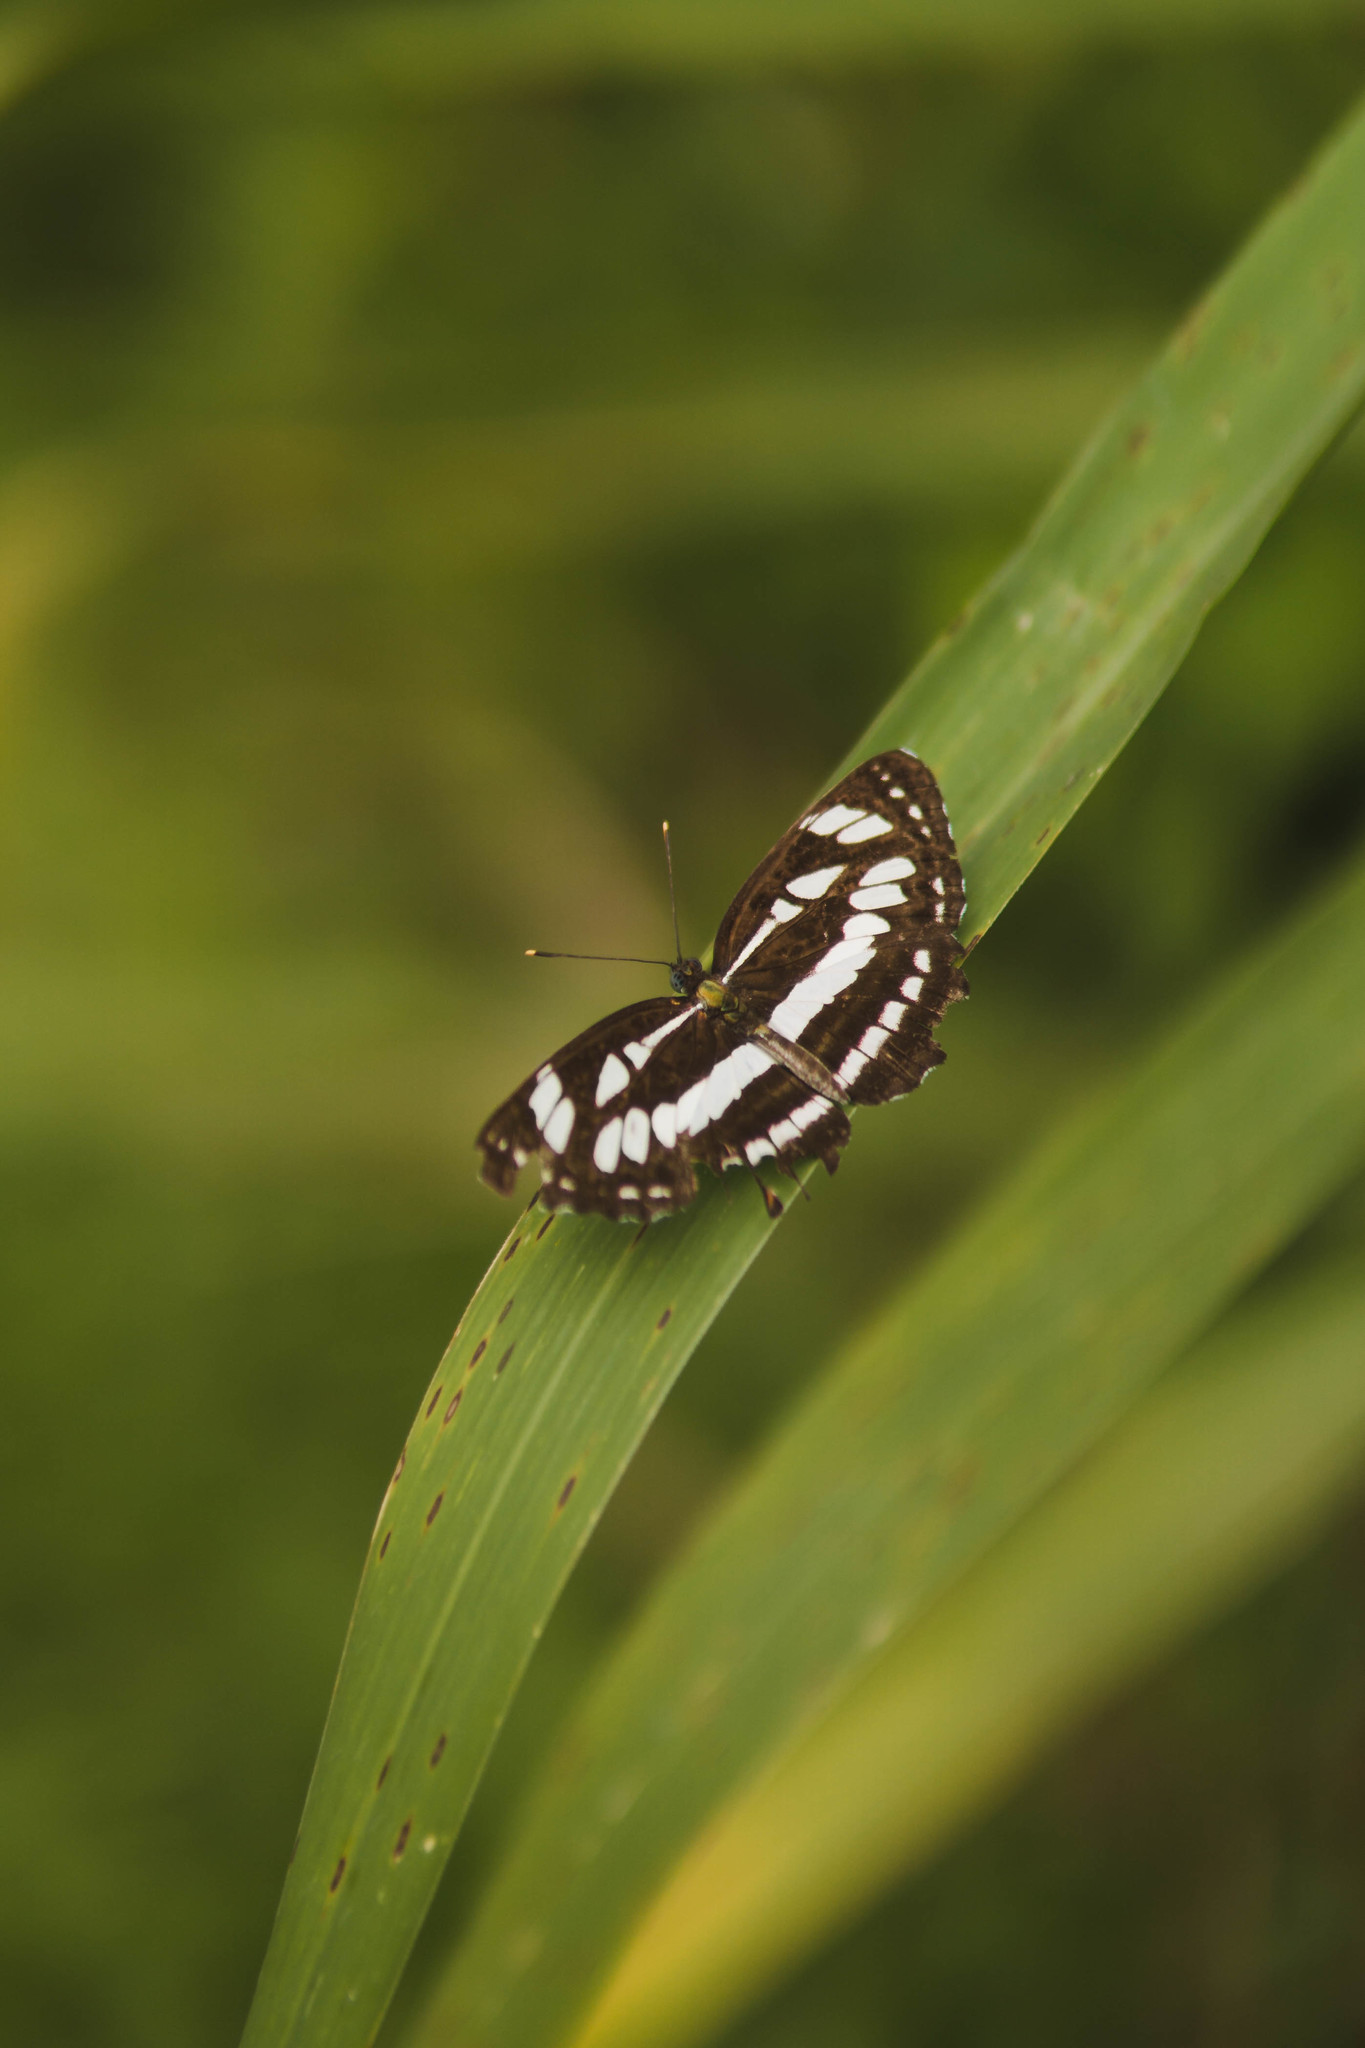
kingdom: Animalia
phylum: Arthropoda
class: Insecta
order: Lepidoptera
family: Nymphalidae
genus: Neptis
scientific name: Neptis hylas
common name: Common sailer
